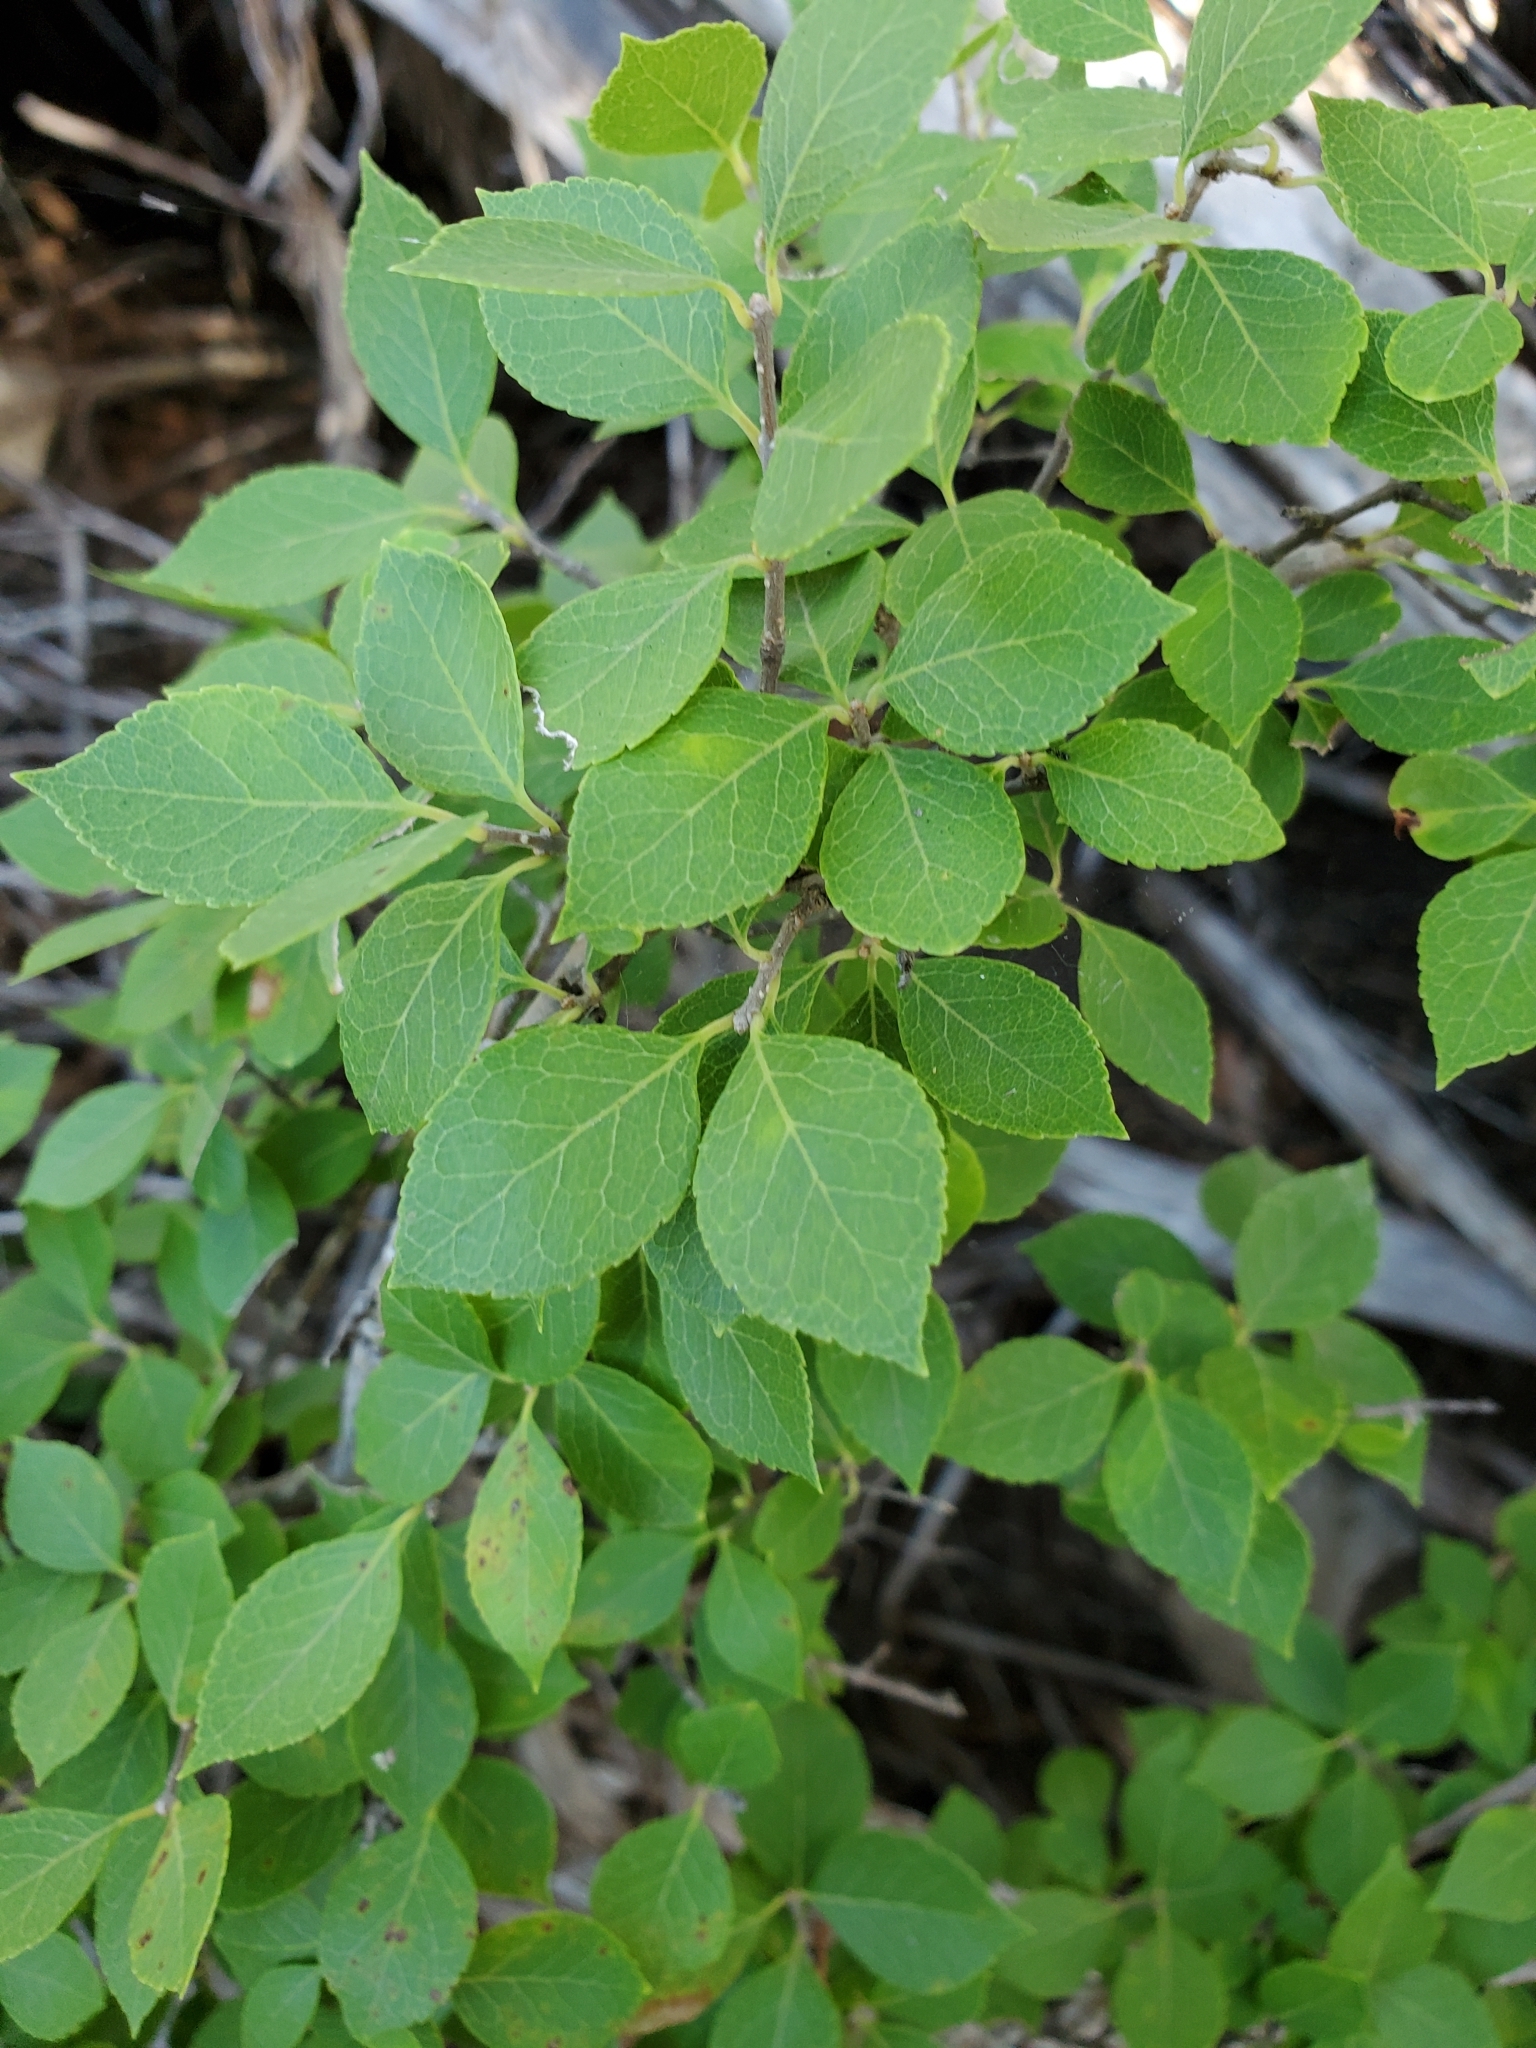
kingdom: Plantae
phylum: Tracheophyta
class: Magnoliopsida
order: Lamiales
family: Oleaceae
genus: Forestiera
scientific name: Forestiera reticulata
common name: Netleaf swamp-privet
